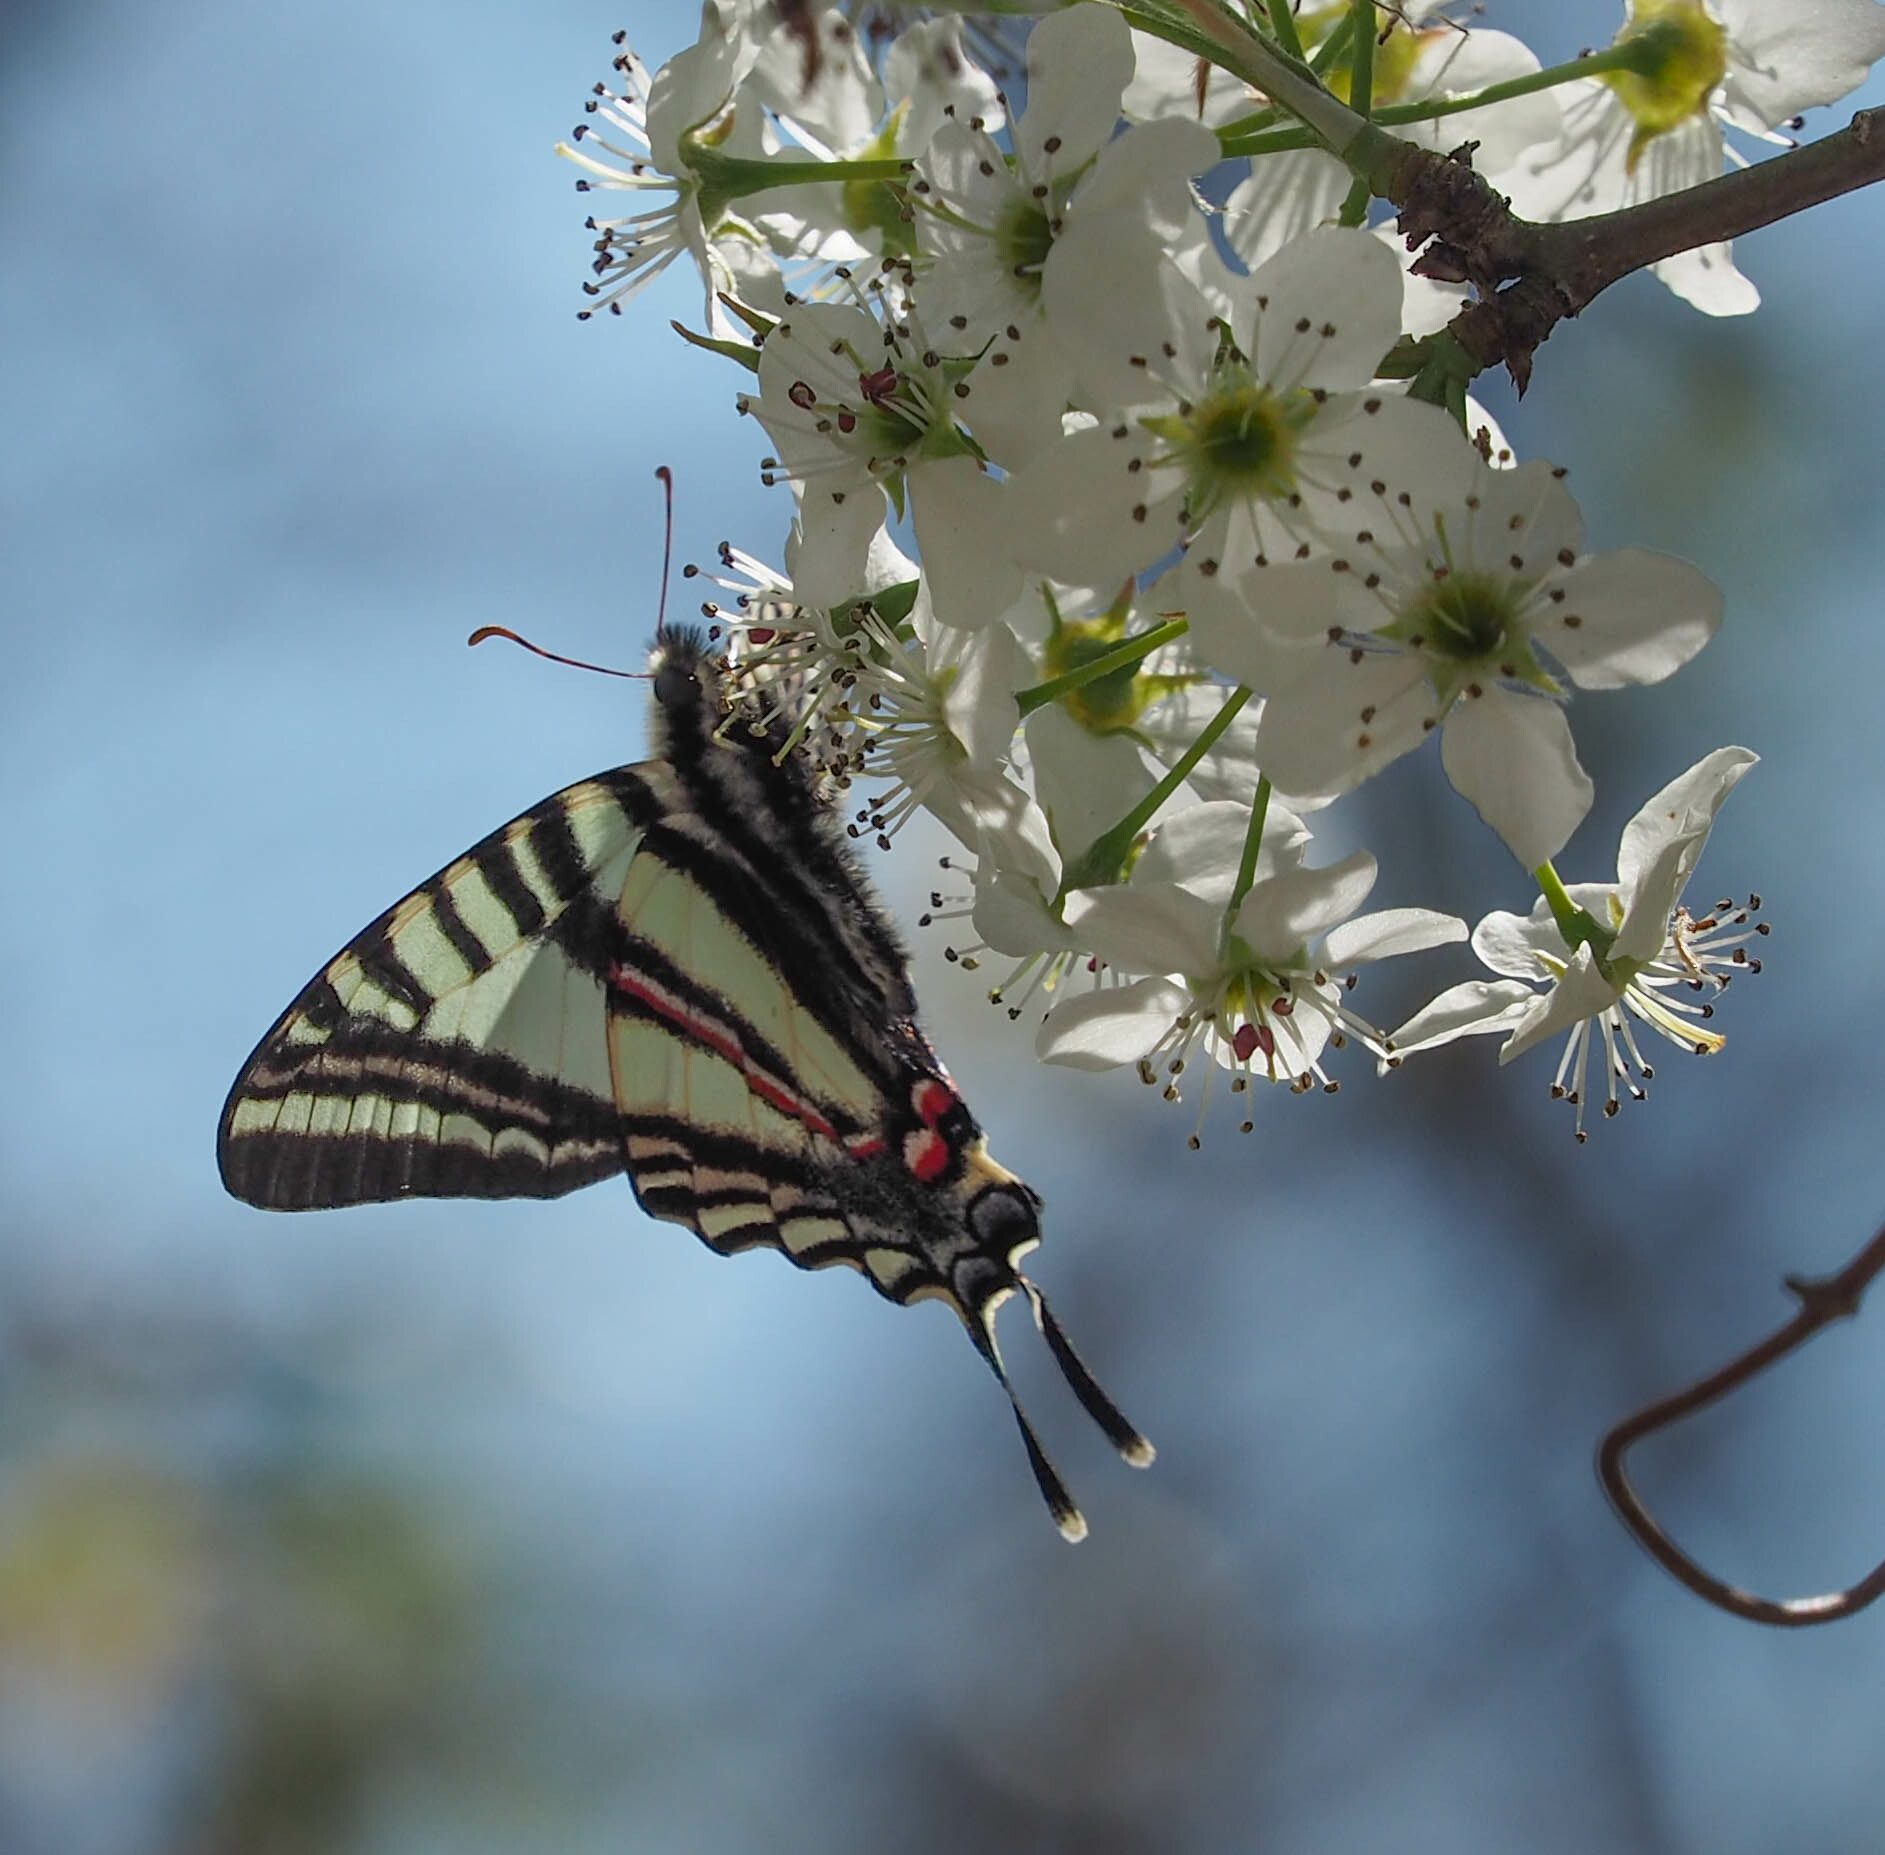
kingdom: Animalia
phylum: Arthropoda
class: Insecta
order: Lepidoptera
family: Papilionidae
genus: Protographium
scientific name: Protographium marcellus
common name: Zebra swallowtail
